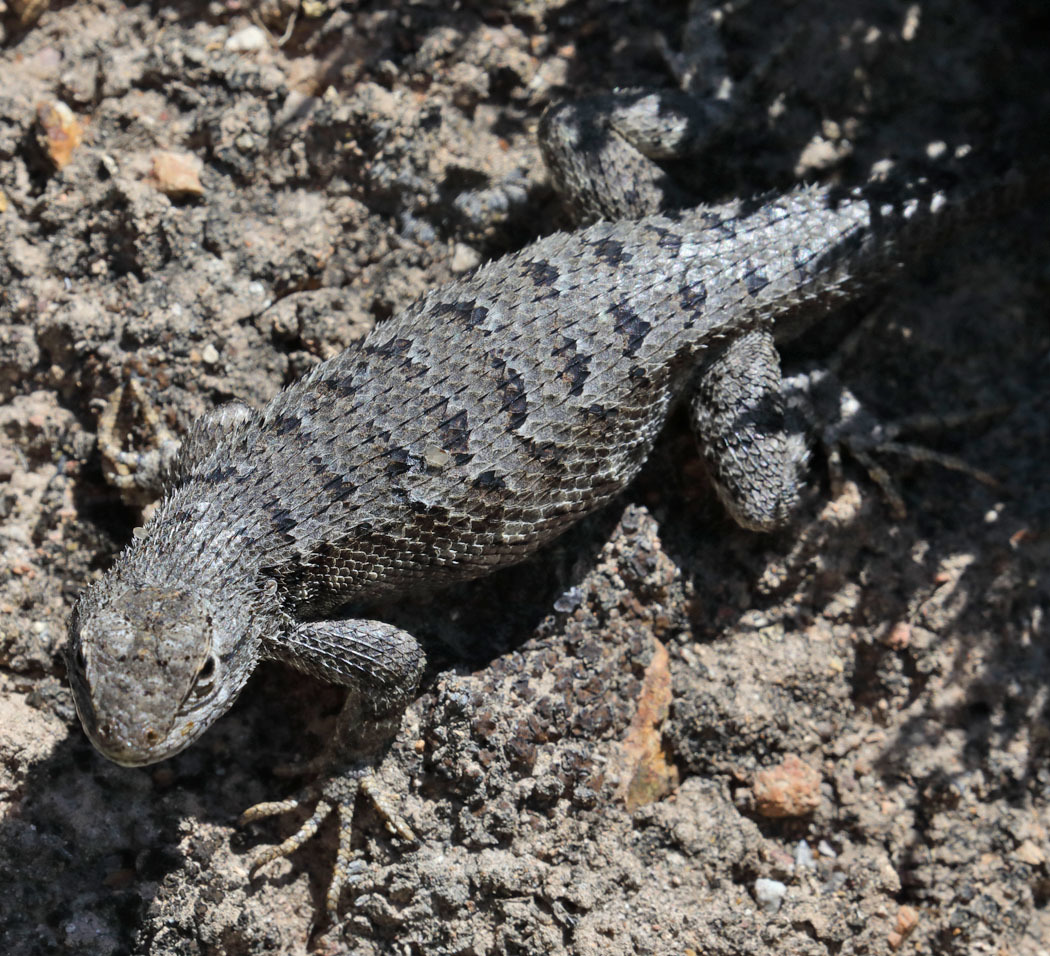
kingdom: Animalia
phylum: Chordata
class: Squamata
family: Phrynosomatidae
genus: Sceloporus
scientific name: Sceloporus occidentalis
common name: Western fence lizard
